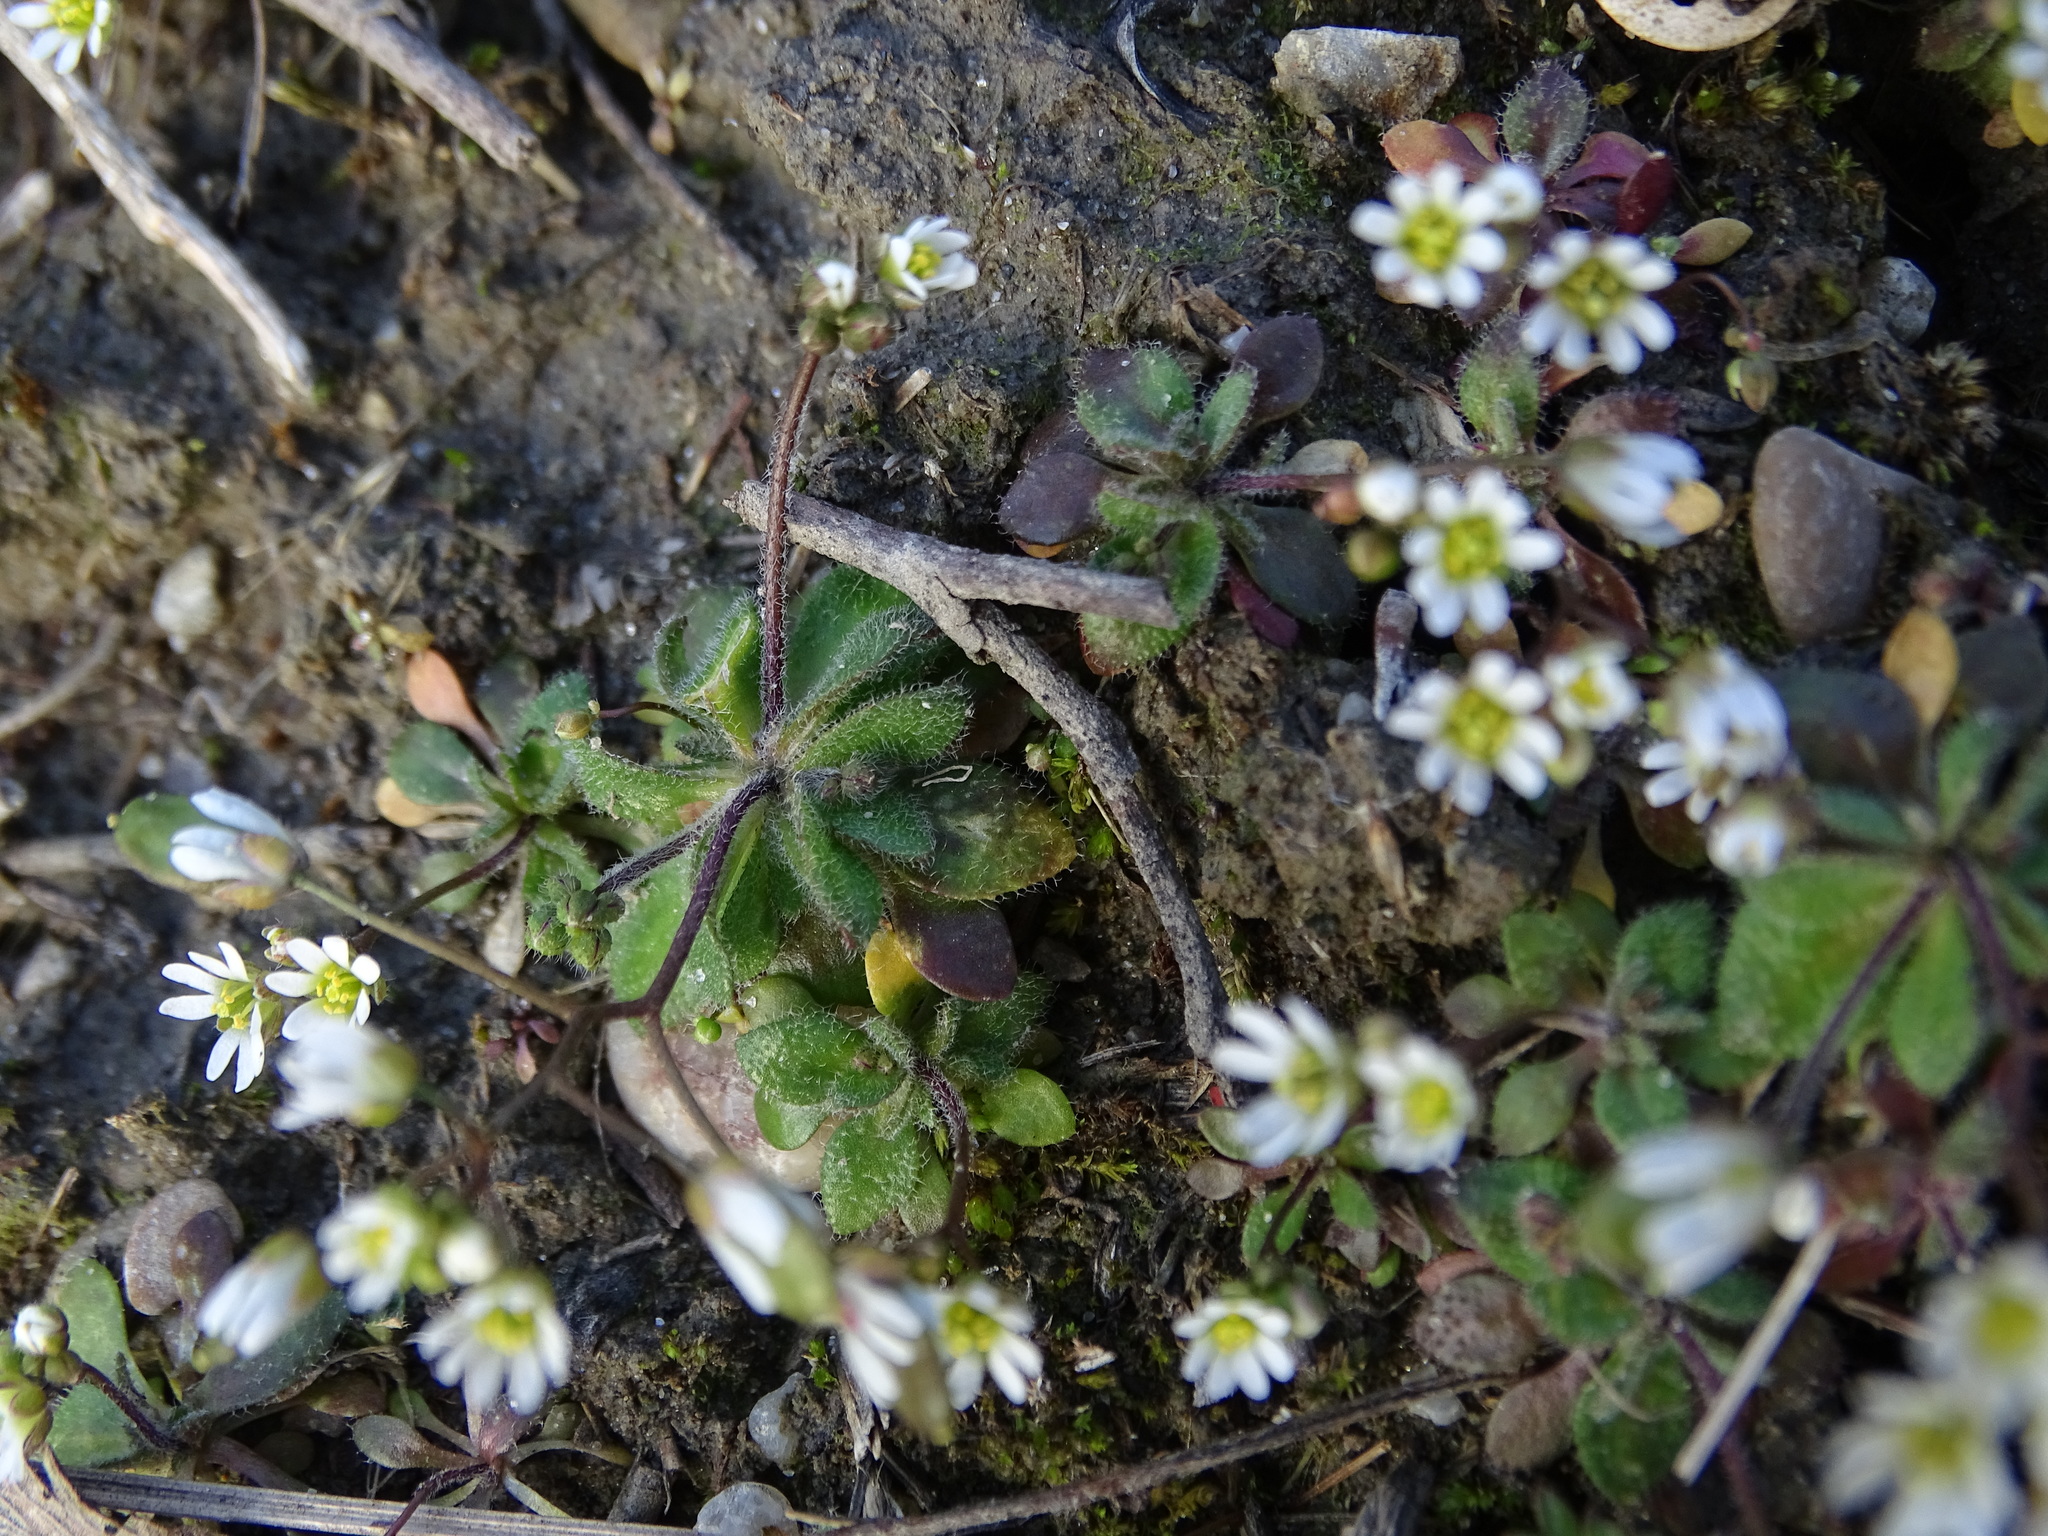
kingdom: Plantae
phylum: Tracheophyta
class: Magnoliopsida
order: Brassicales
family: Brassicaceae
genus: Draba
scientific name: Draba verna
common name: Spring draba
